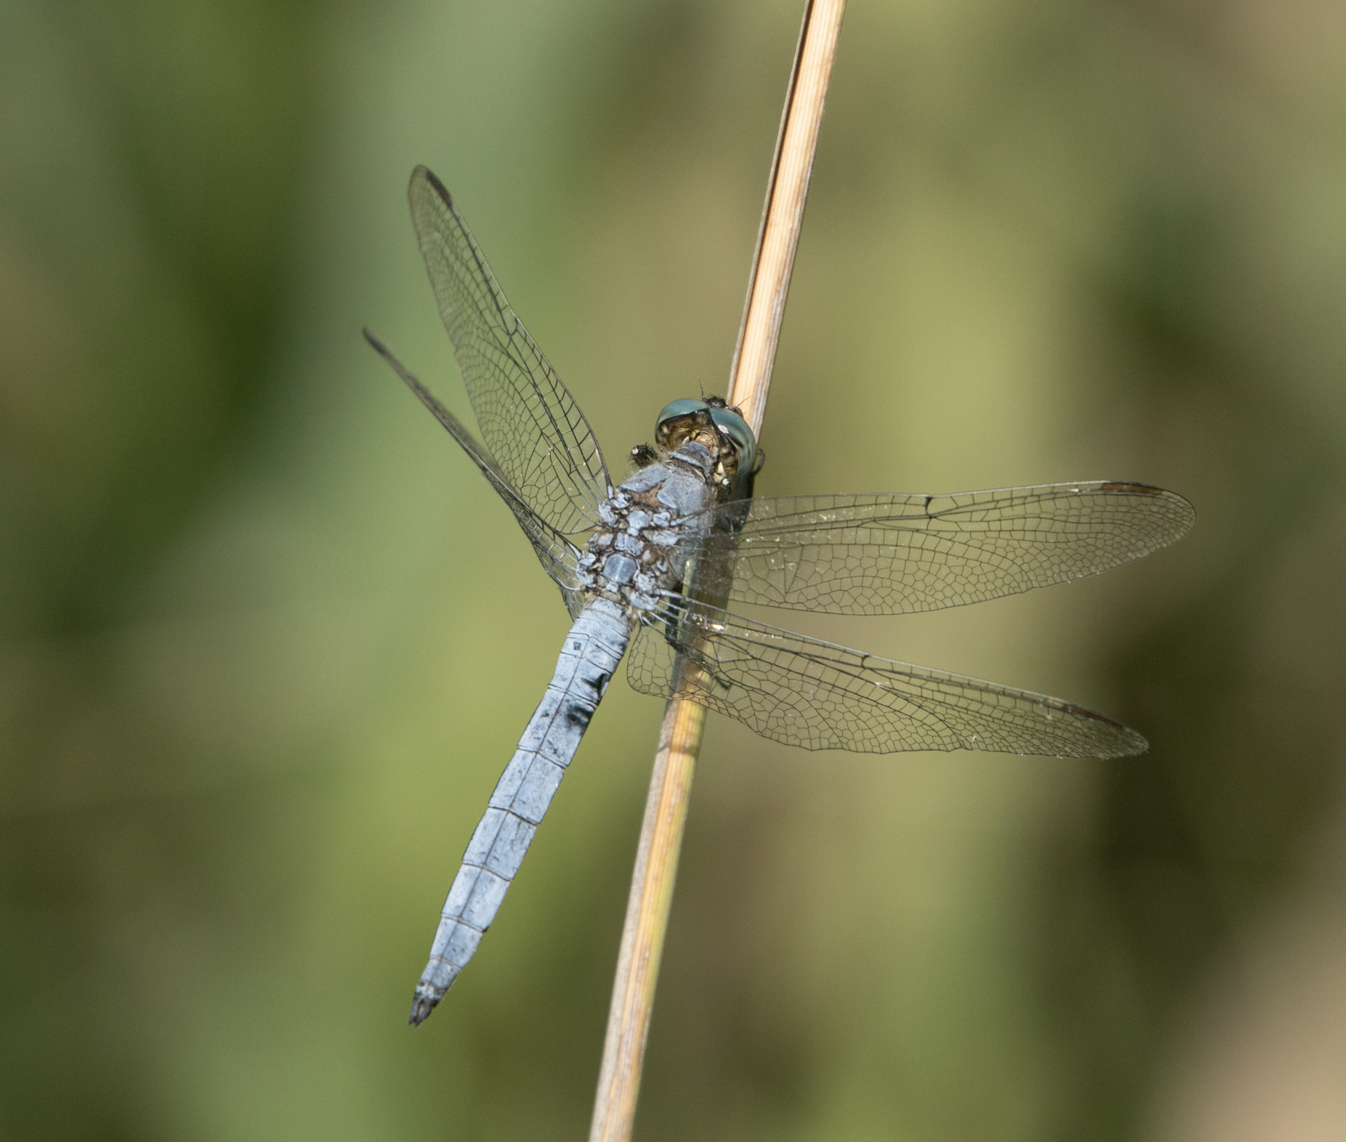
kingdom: Animalia
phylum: Arthropoda
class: Insecta
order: Odonata
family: Libellulidae
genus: Orthetrum
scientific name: Orthetrum coerulescens
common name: Keeled skimmer
